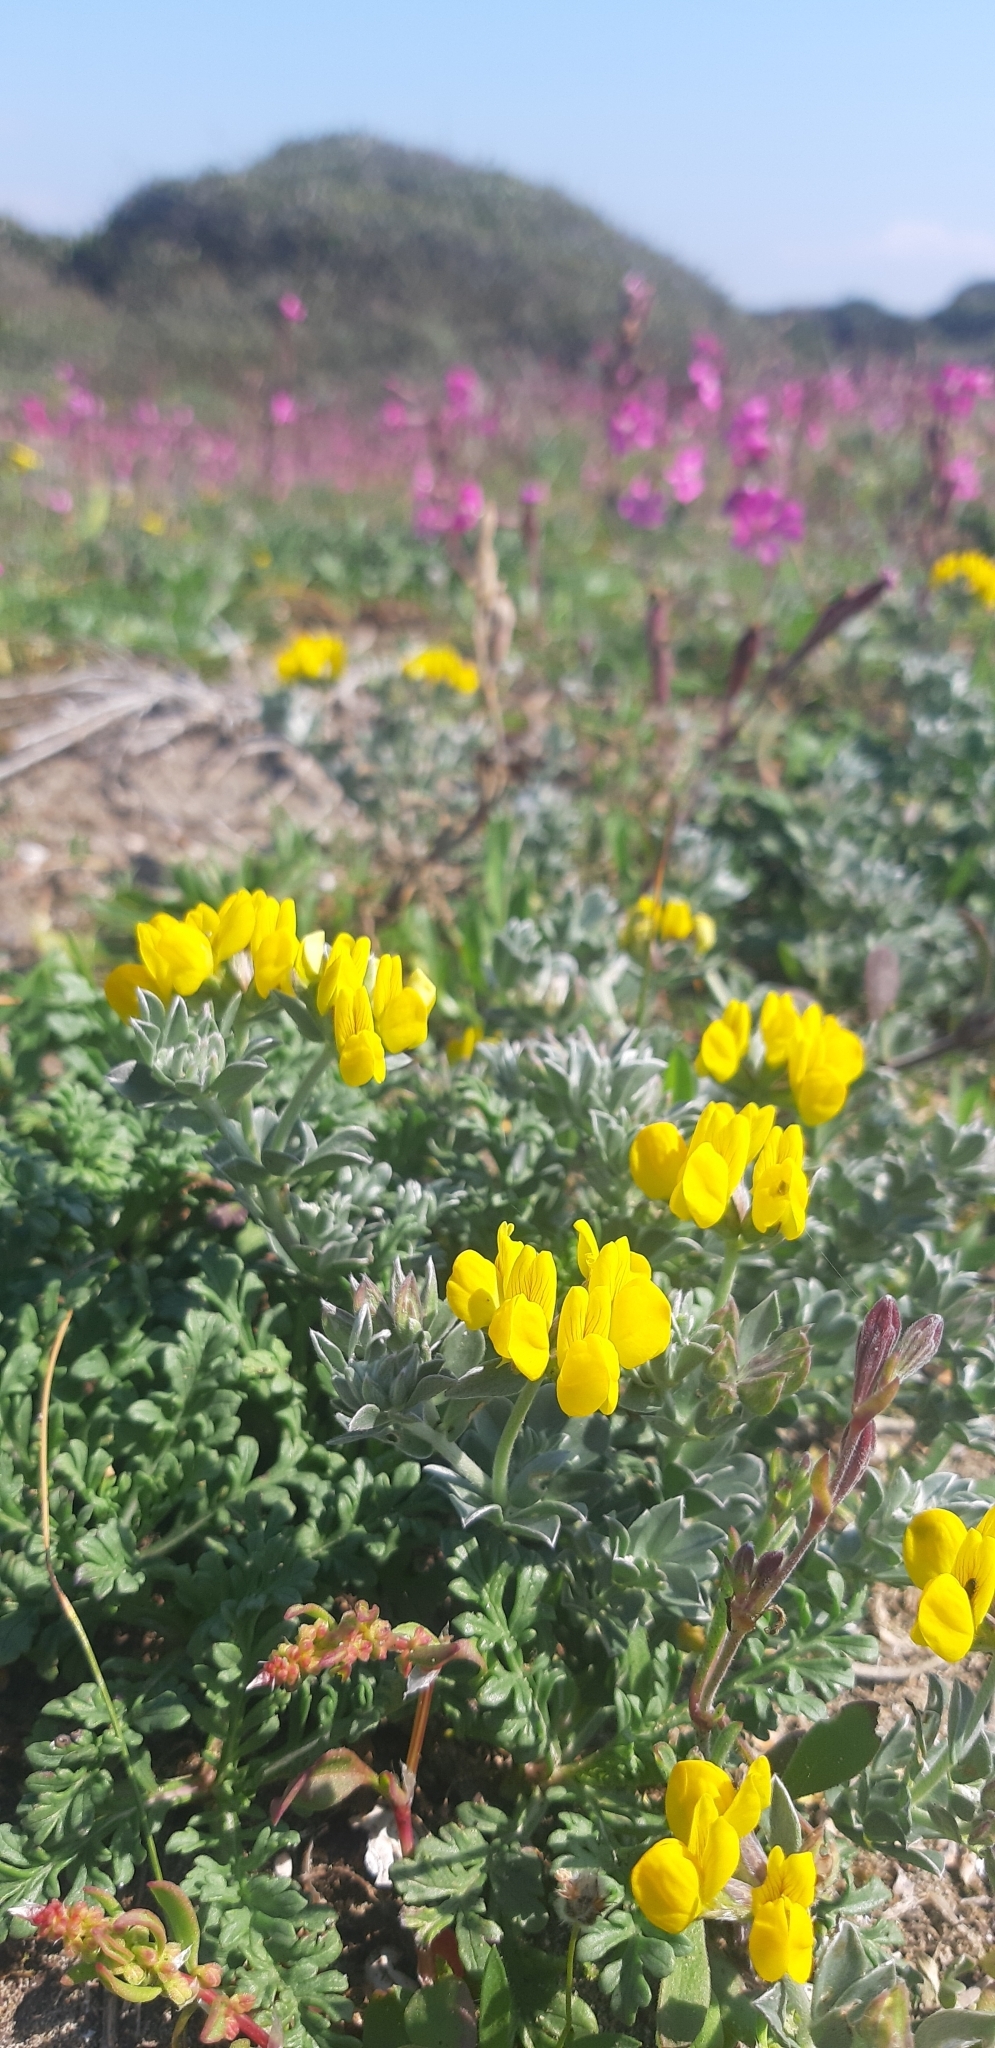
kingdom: Plantae
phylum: Tracheophyta
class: Magnoliopsida
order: Fabales
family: Fabaceae
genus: Lotus
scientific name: Lotus cytisoides
